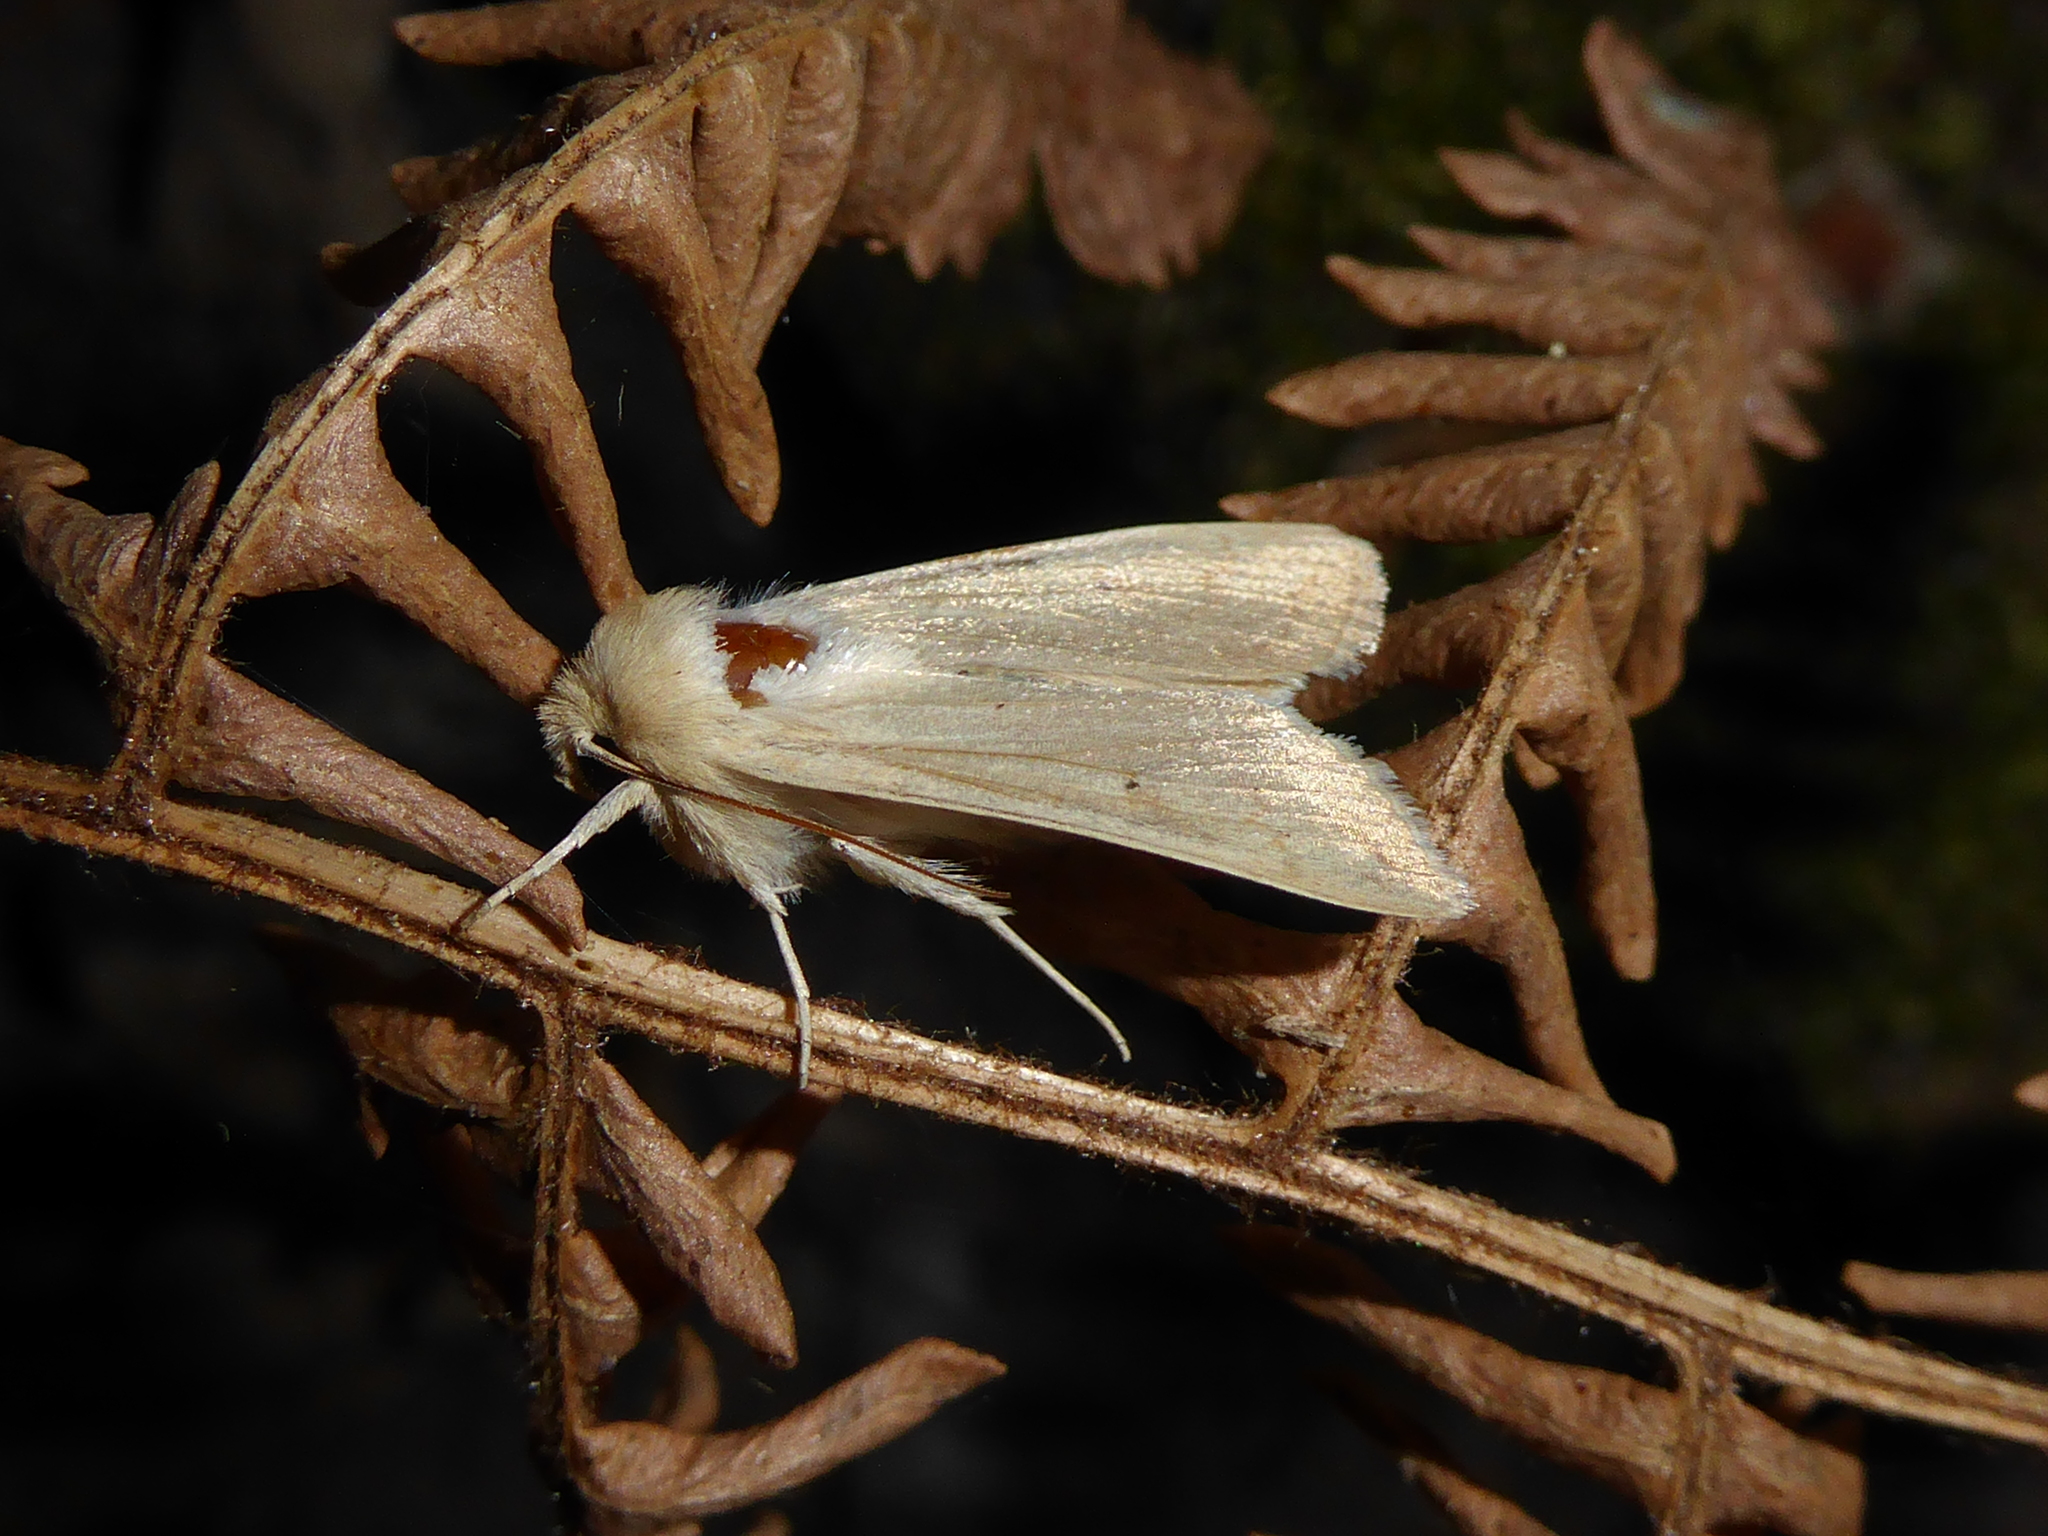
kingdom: Animalia
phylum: Arthropoda
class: Insecta
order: Lepidoptera
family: Noctuidae
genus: Mythimna
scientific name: Mythimna vitellina
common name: Delicate
